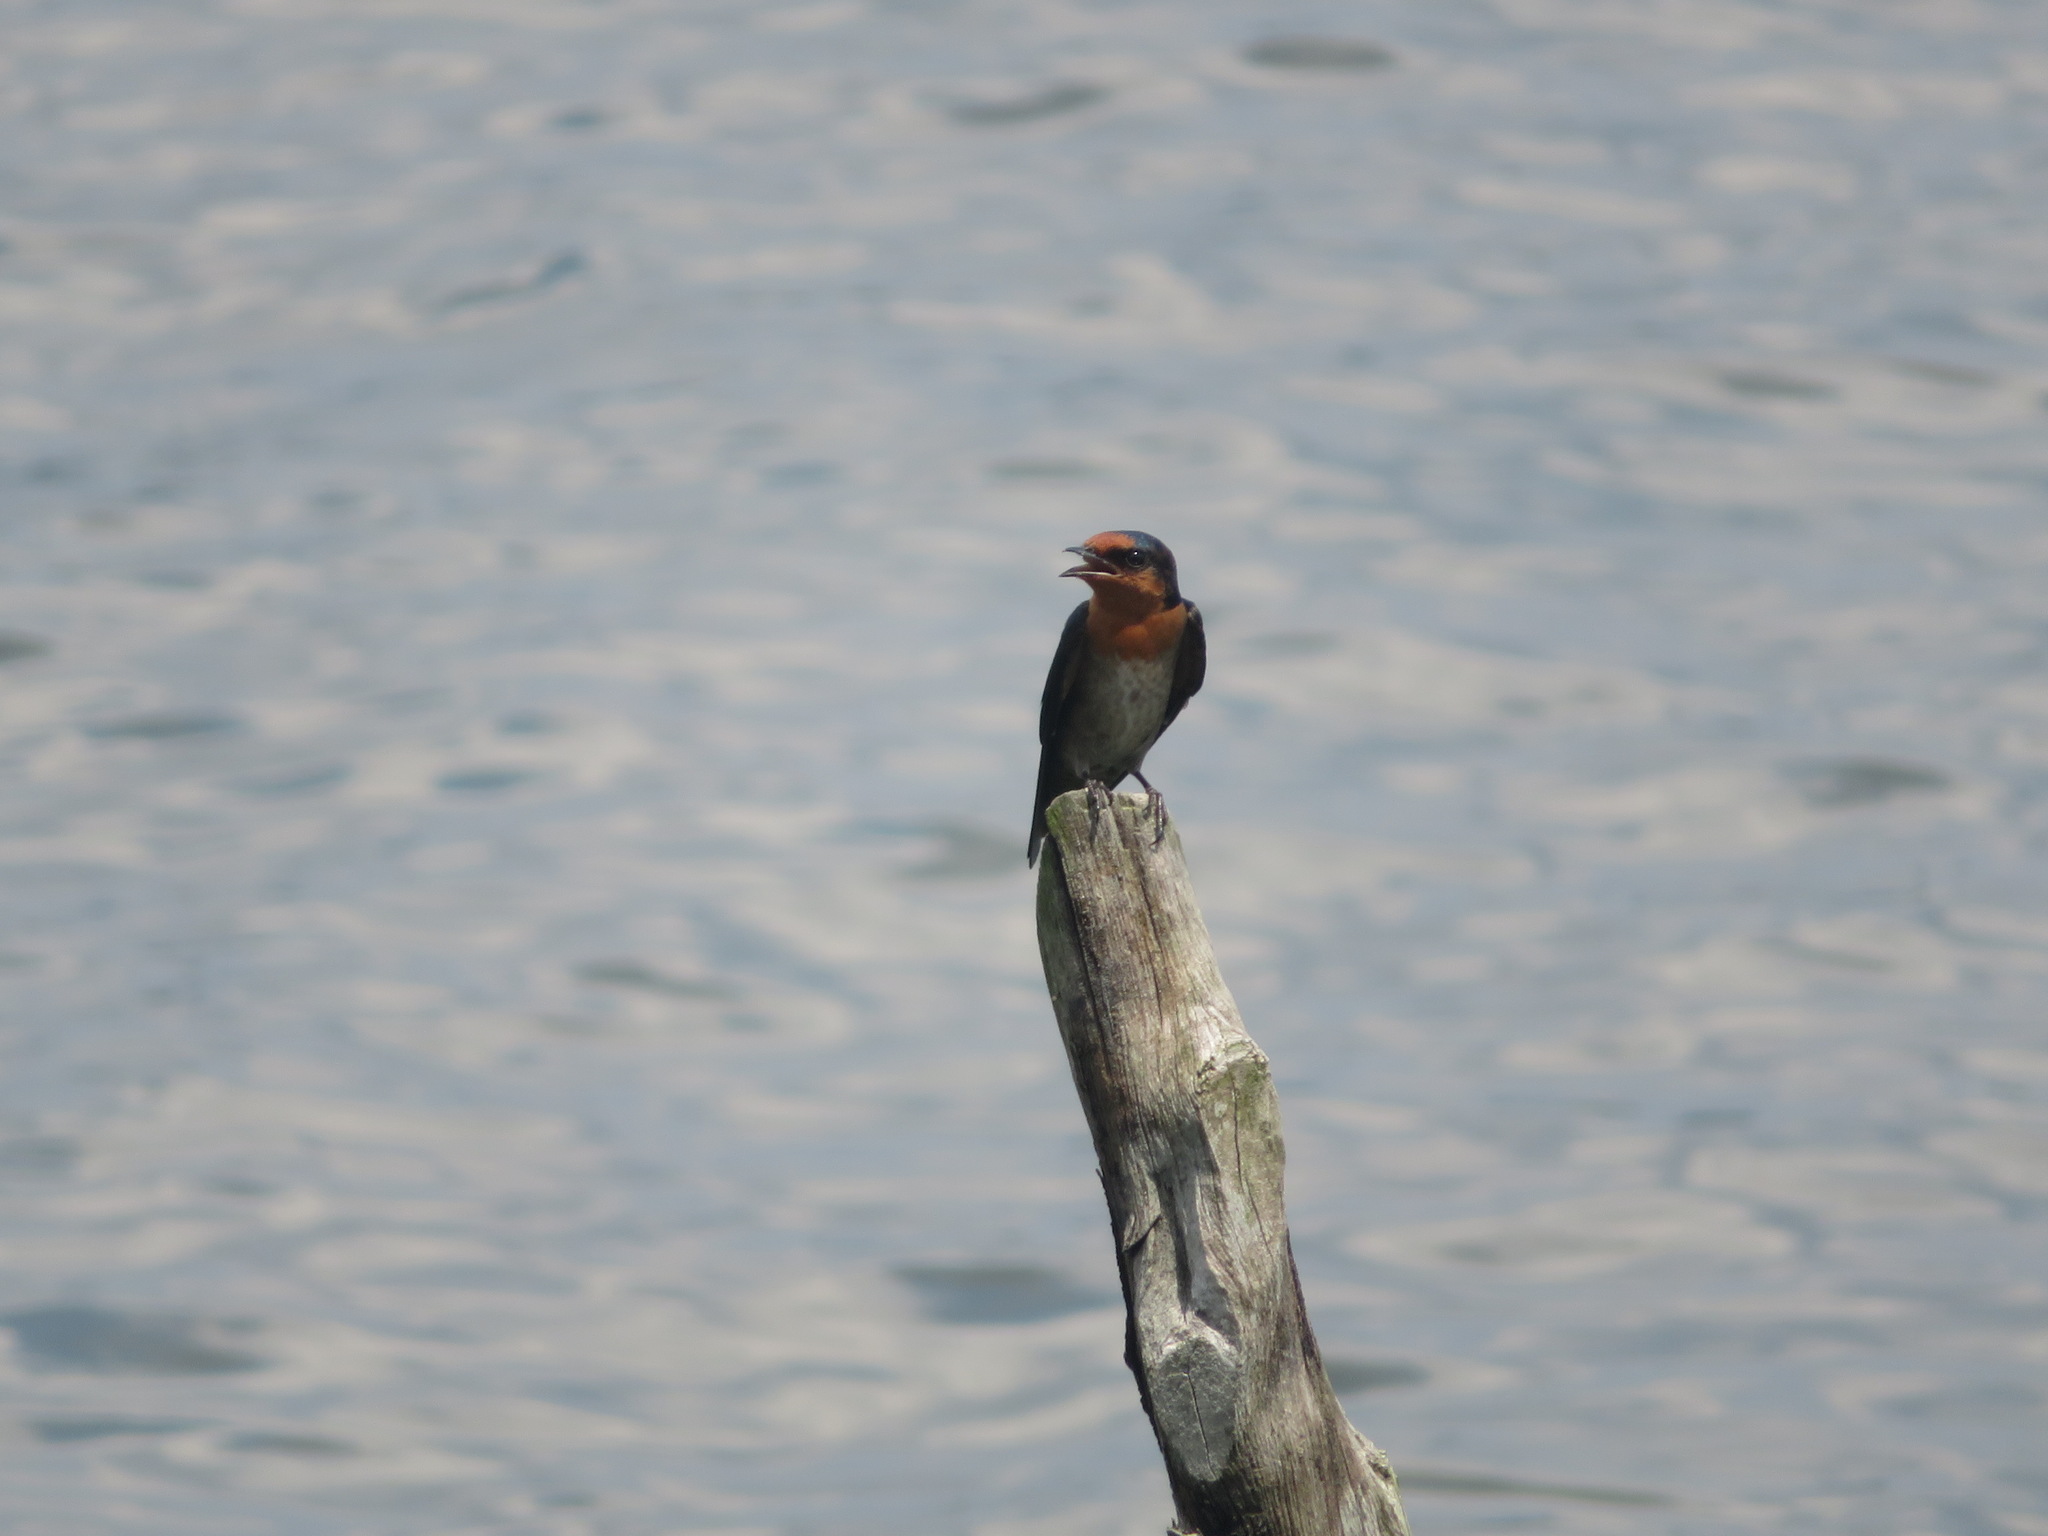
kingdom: Animalia
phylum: Chordata
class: Aves
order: Passeriformes
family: Hirundinidae
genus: Hirundo
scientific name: Hirundo tahitica
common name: Pacific swallow
